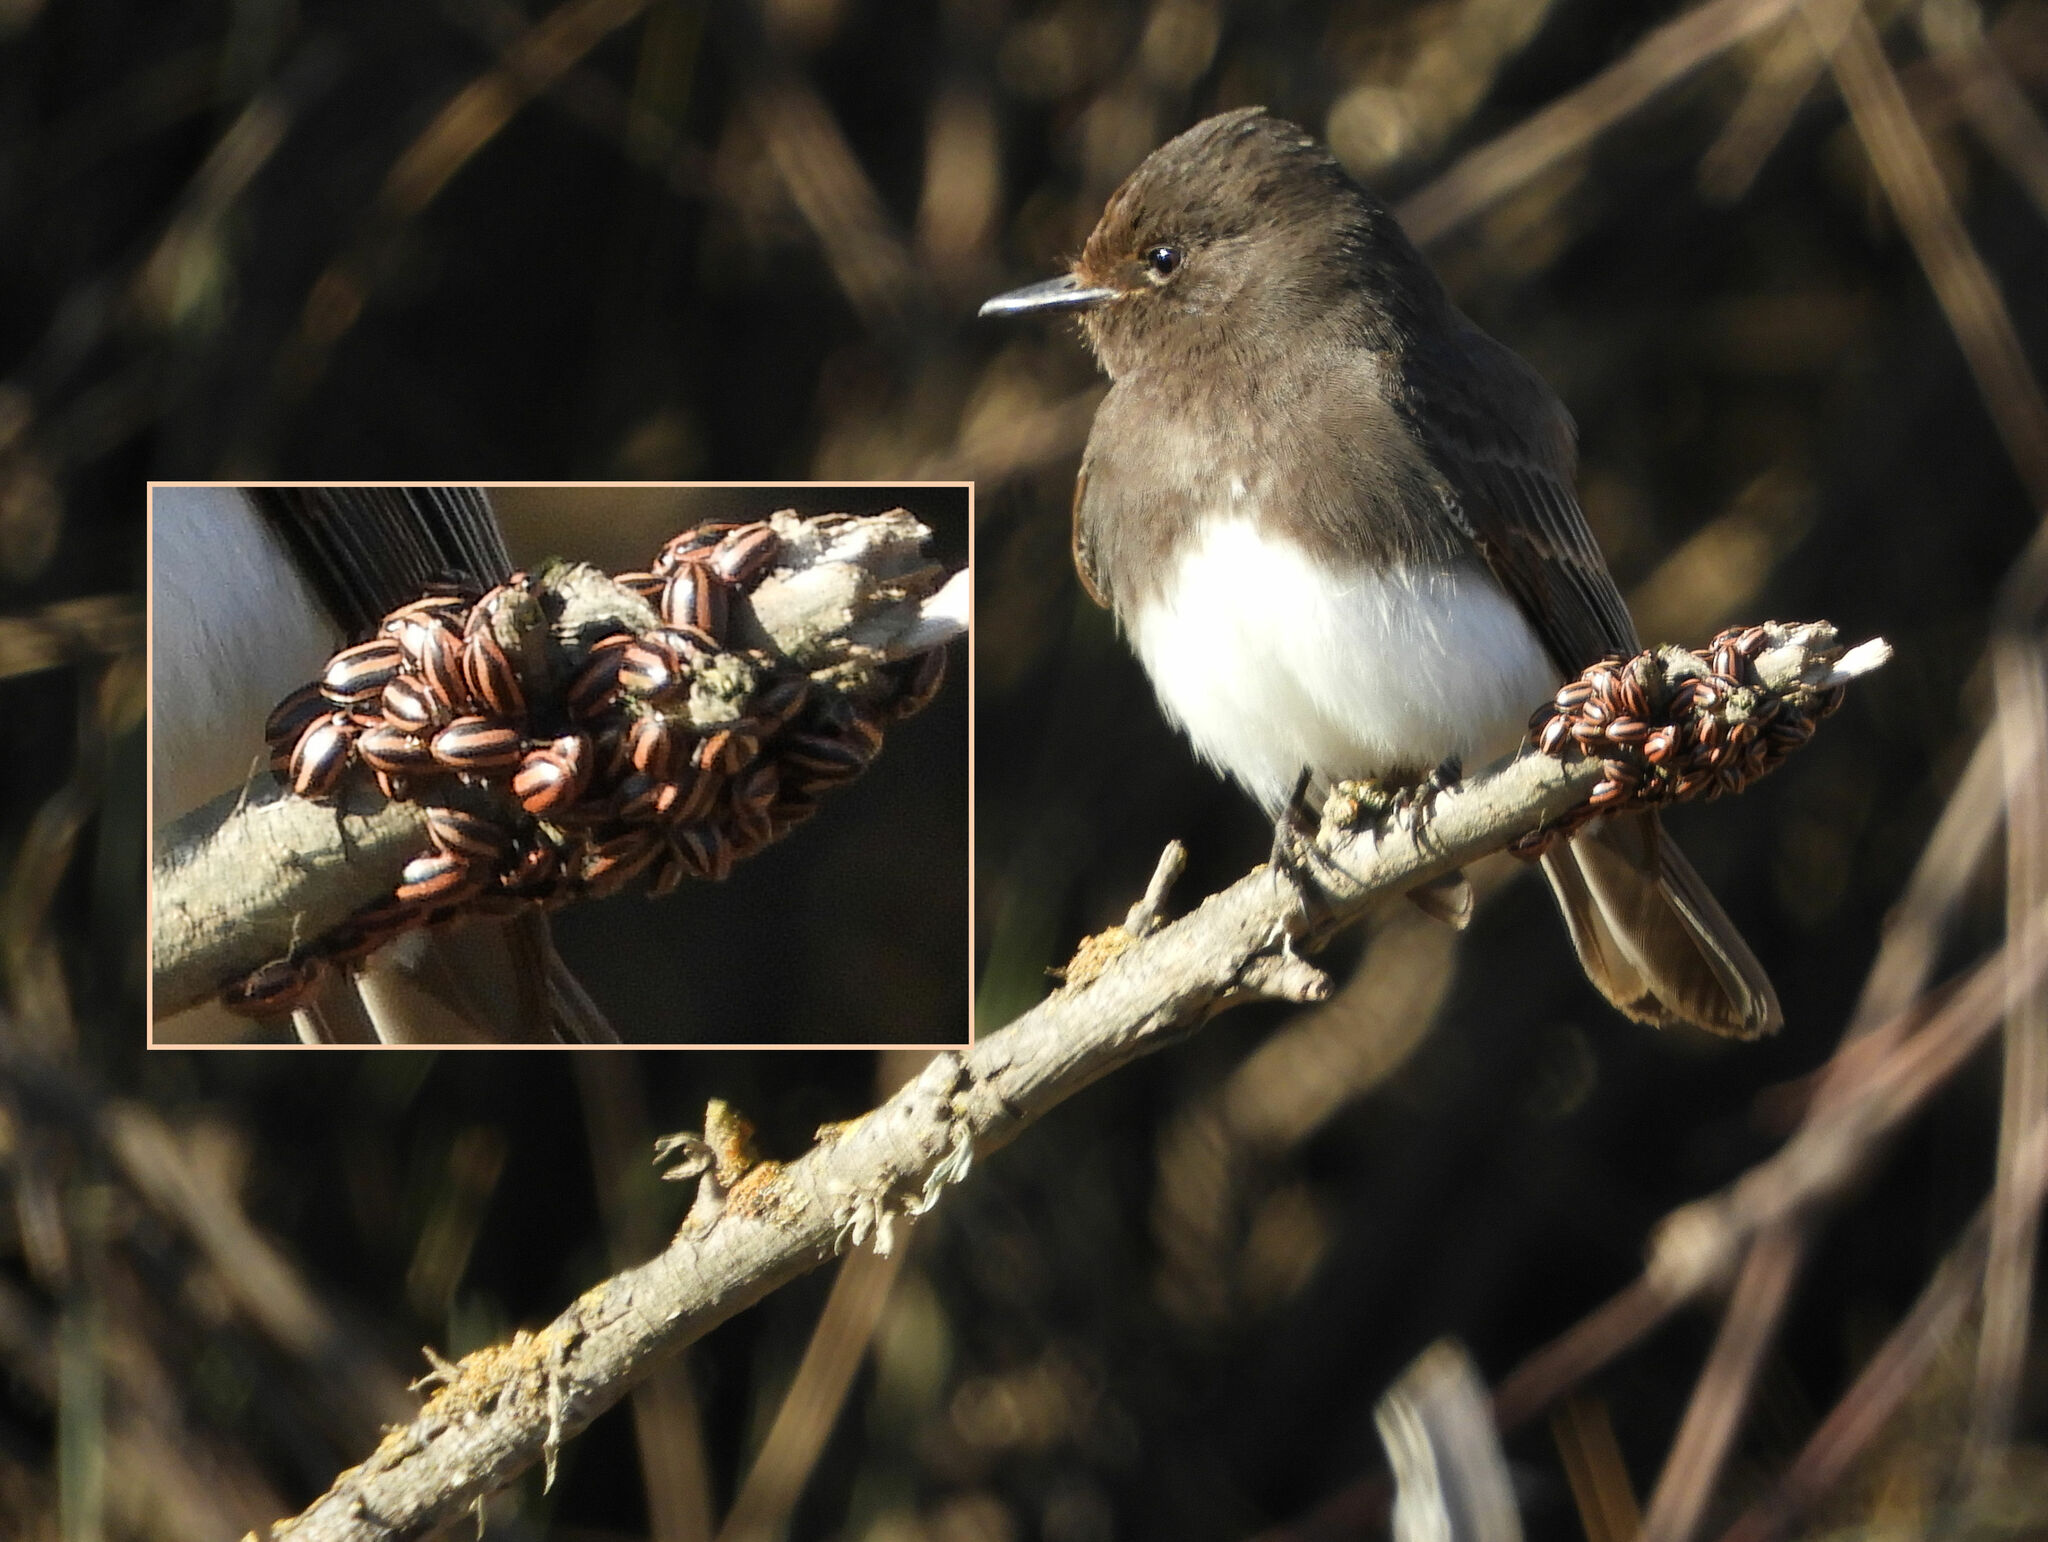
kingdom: Animalia
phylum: Chordata
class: Aves
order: Passeriformes
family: Tyrannidae
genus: Sayornis
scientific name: Sayornis nigricans
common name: Black phoebe
